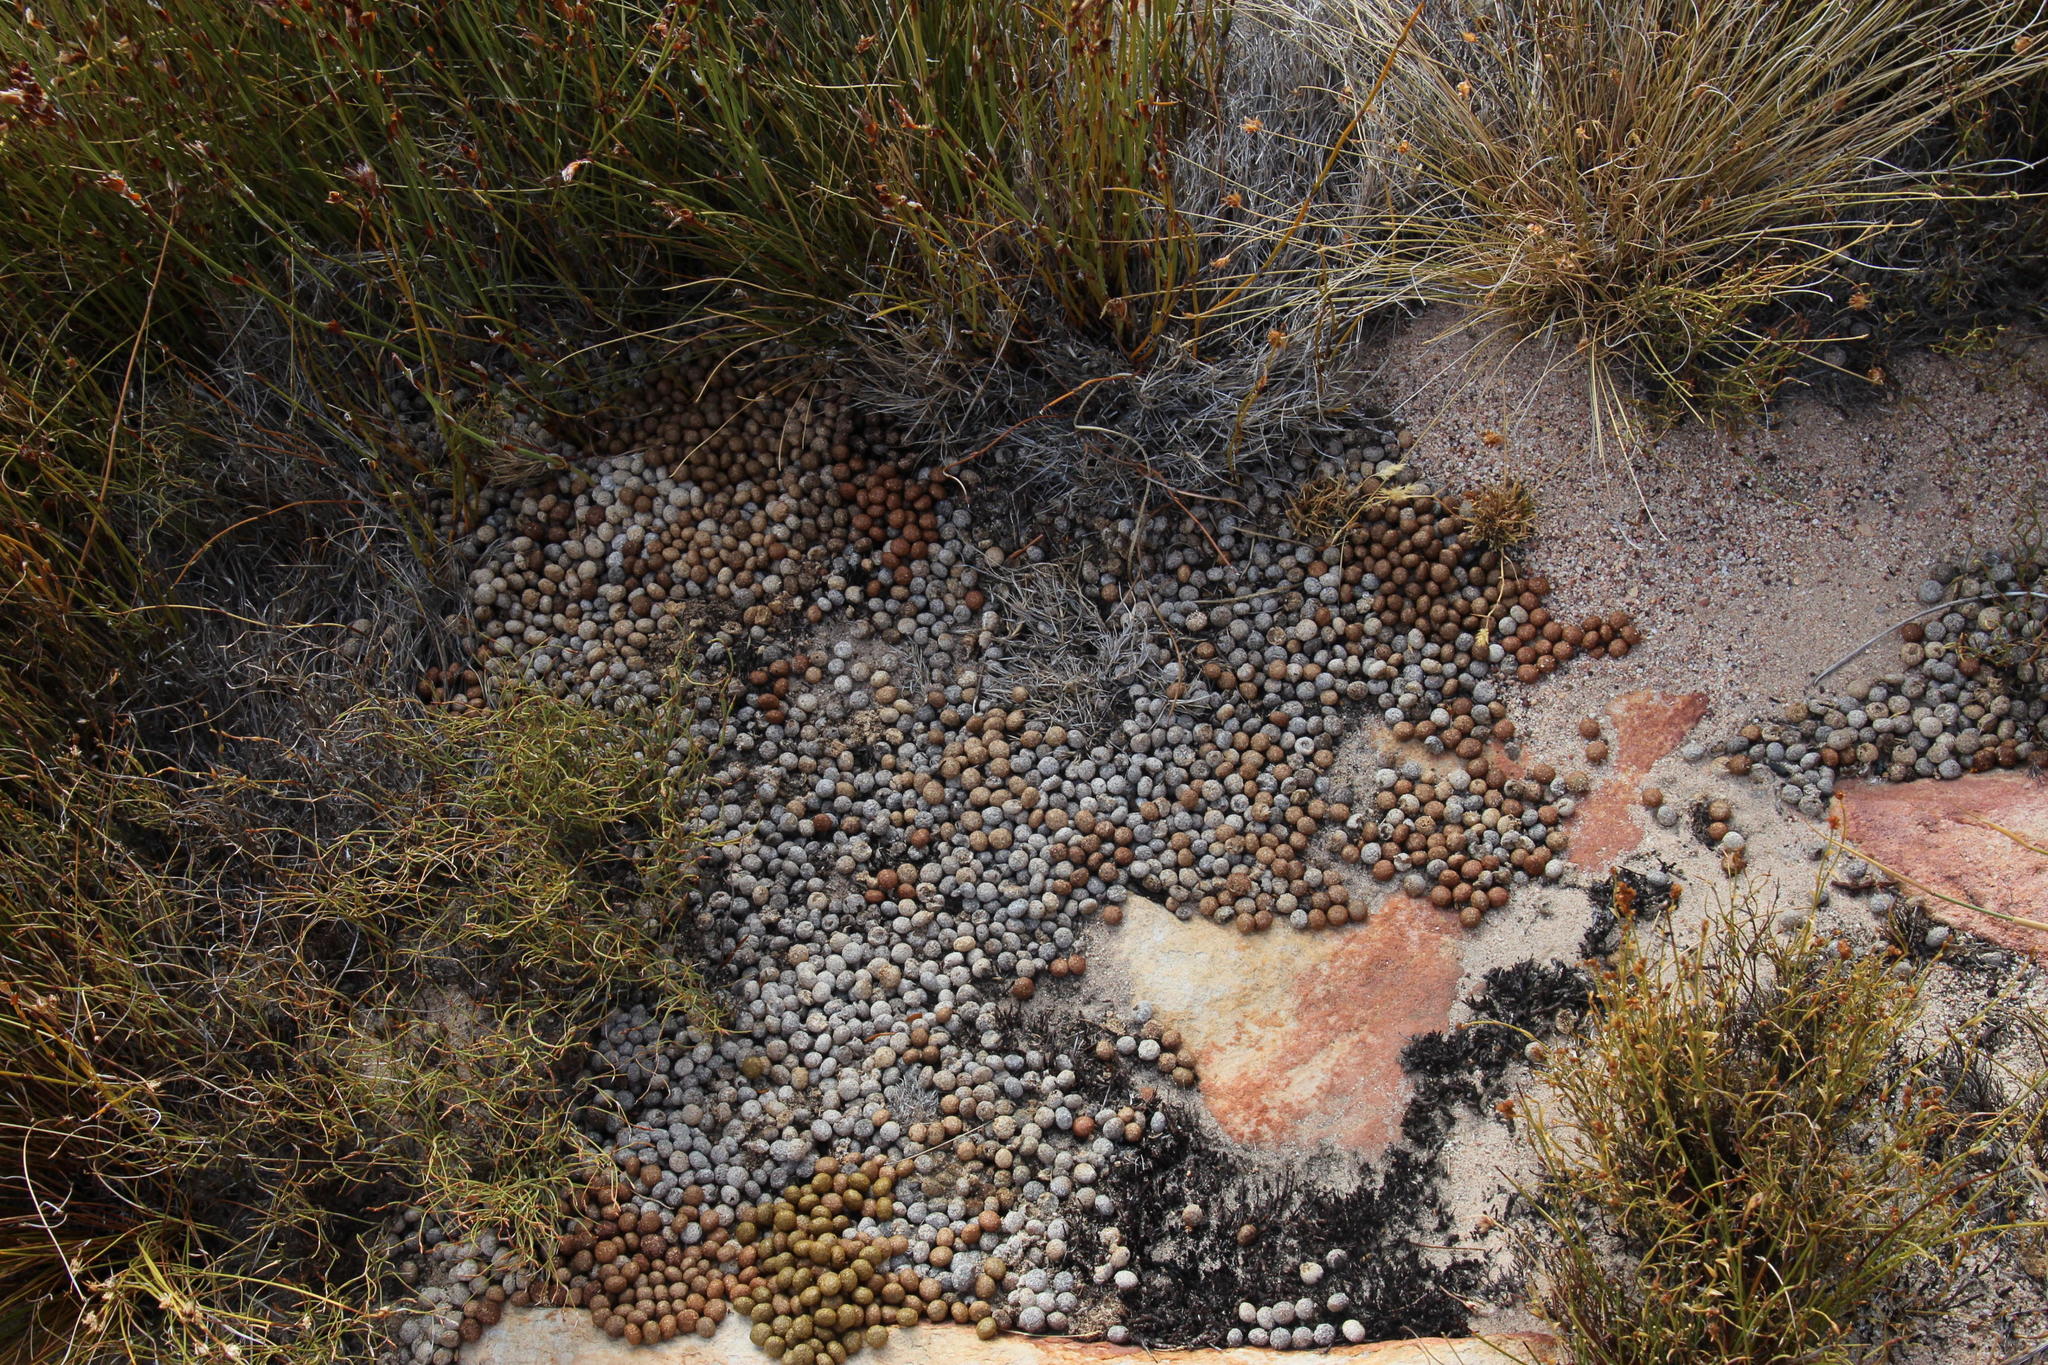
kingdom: Animalia
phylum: Chordata
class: Mammalia
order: Lagomorpha
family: Leporidae
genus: Pronolagus
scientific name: Pronolagus saundersiae
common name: Hewitt's red rock hare
